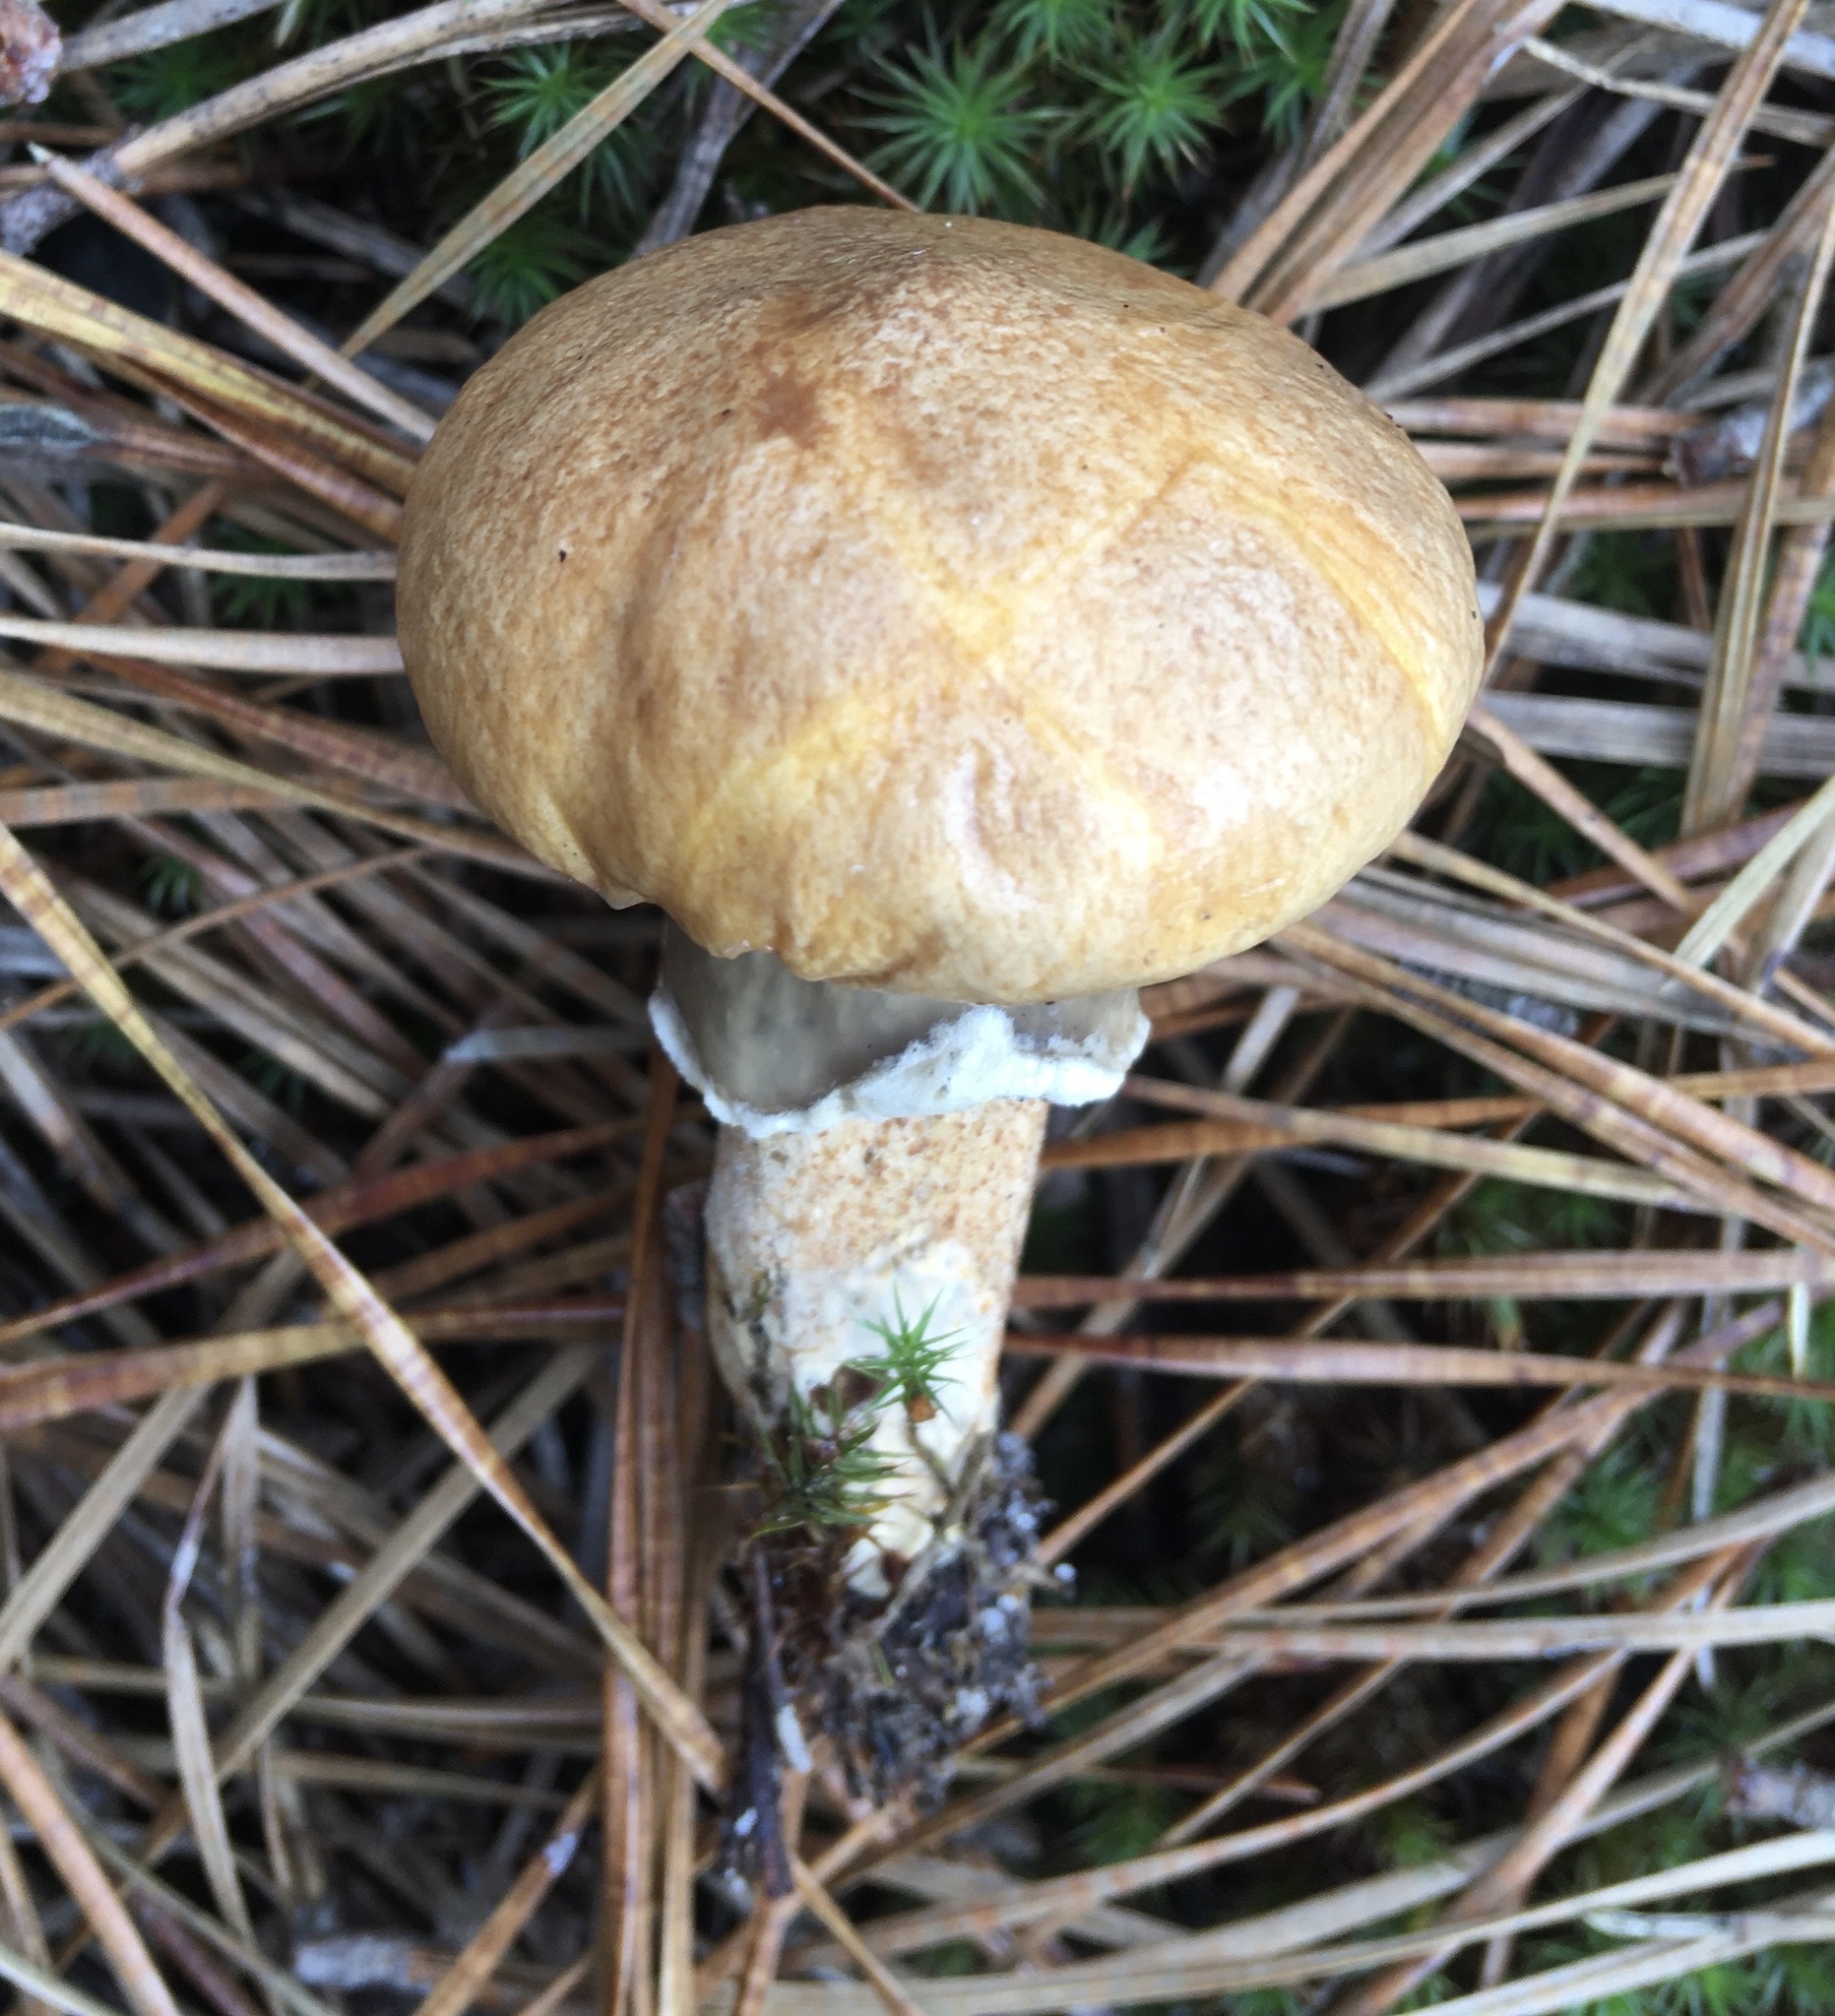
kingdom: Fungi
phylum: Basidiomycota
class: Agaricomycetes
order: Boletales
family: Suillaceae
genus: Suillus
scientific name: Suillus salmonicolor
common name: Slippery jill
